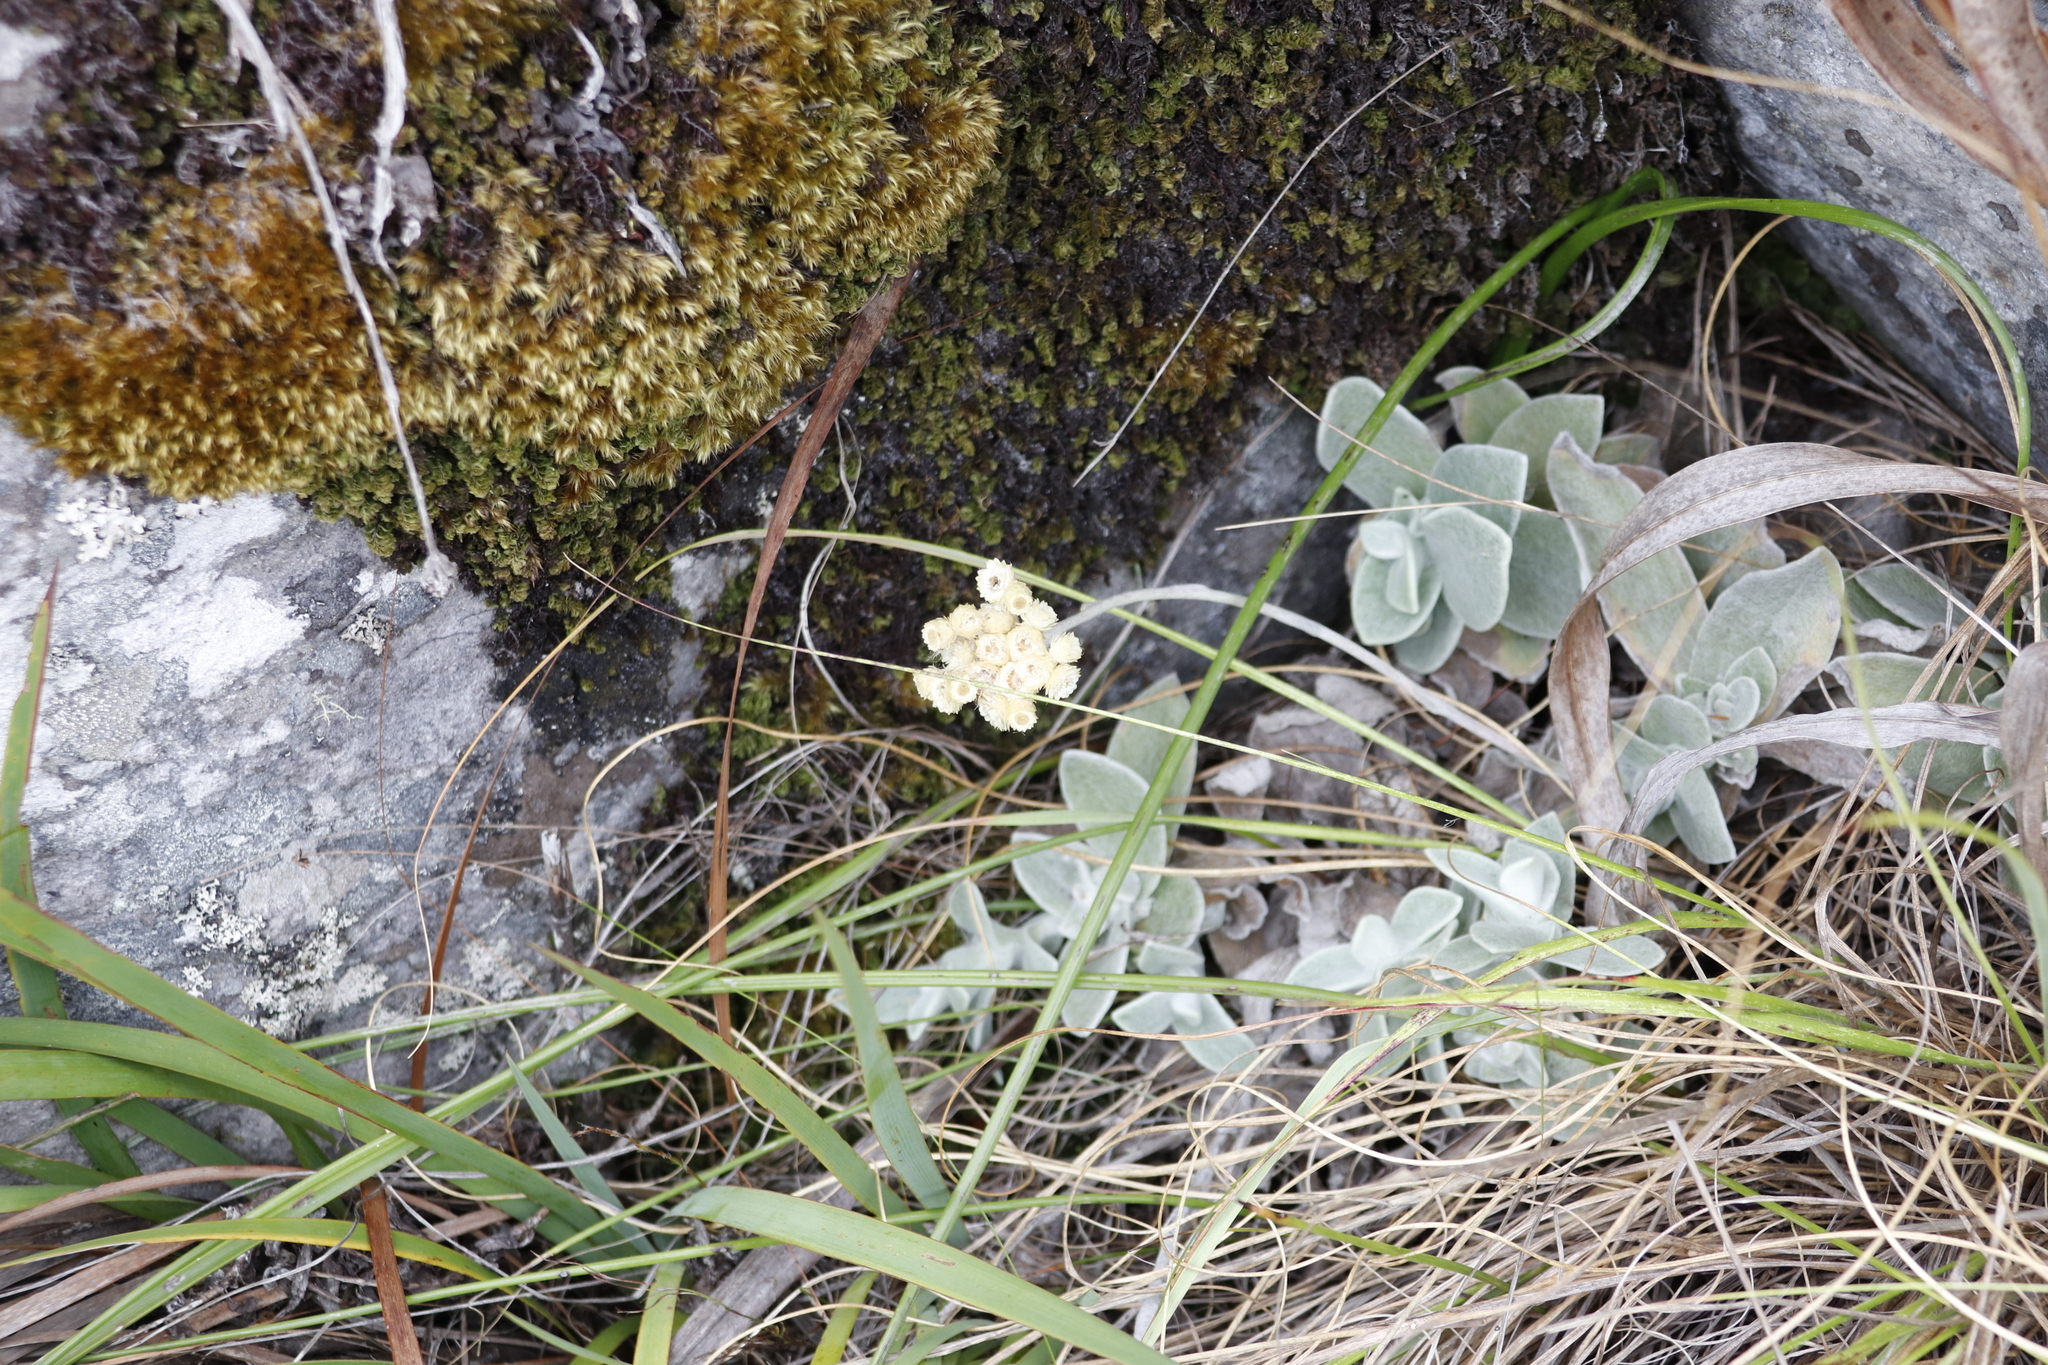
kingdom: Plantae
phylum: Tracheophyta
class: Magnoliopsida
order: Asterales
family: Asteraceae
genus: Helichrysum
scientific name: Helichrysum grandiflorum
